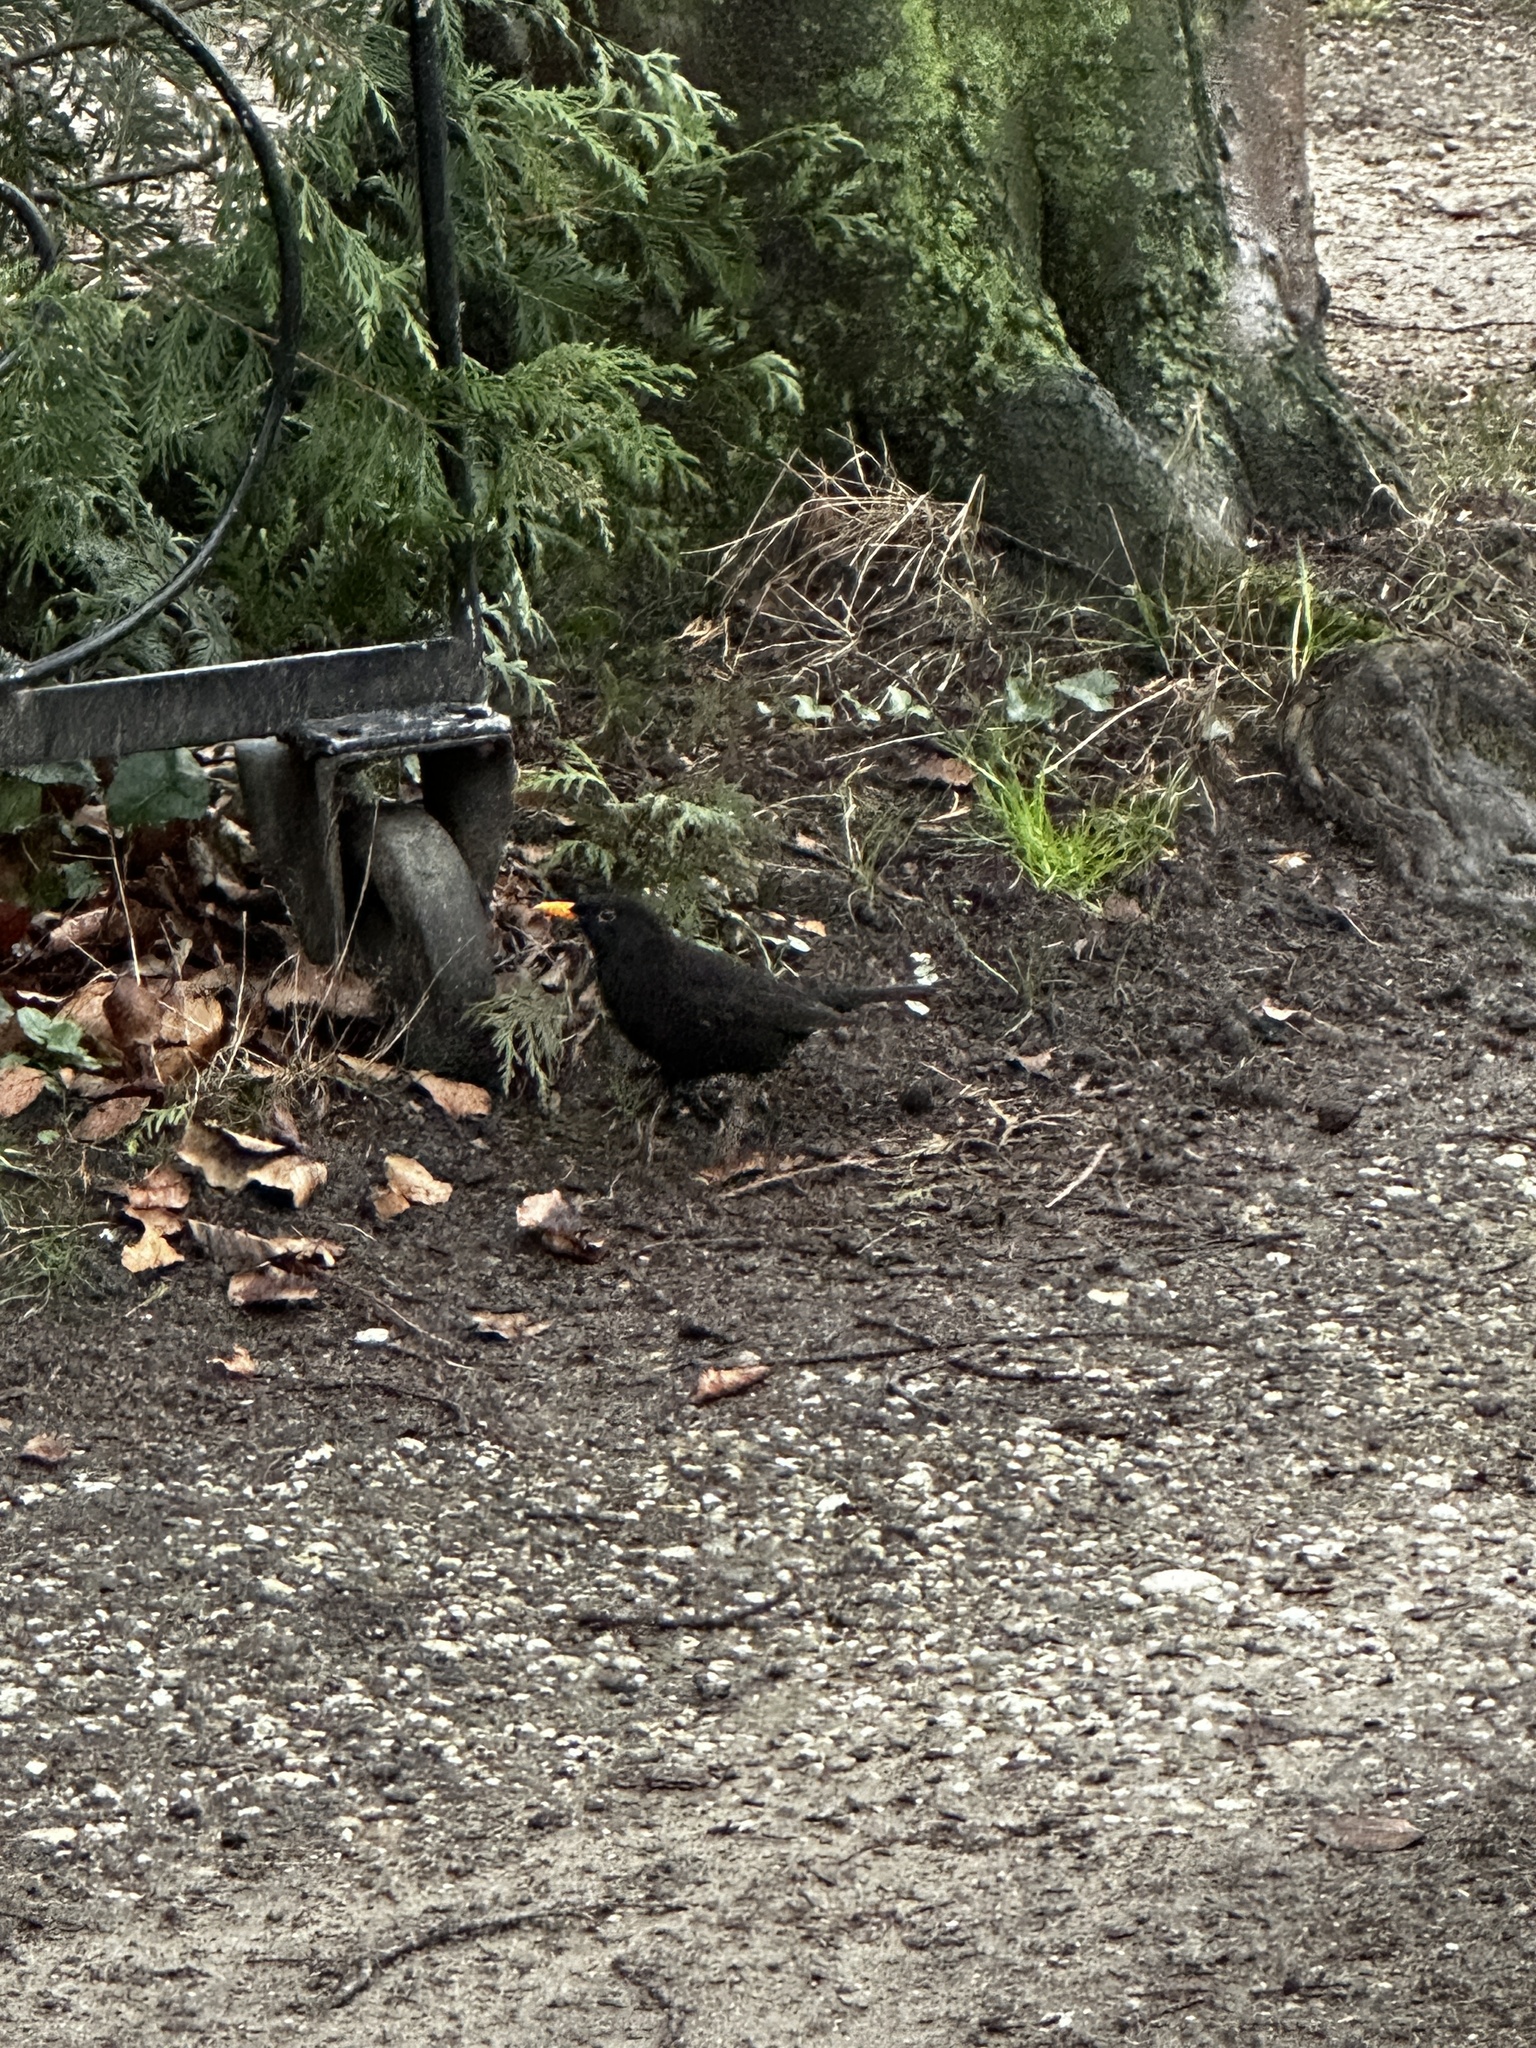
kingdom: Animalia
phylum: Chordata
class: Aves
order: Passeriformes
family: Turdidae
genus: Turdus
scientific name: Turdus merula
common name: Common blackbird
